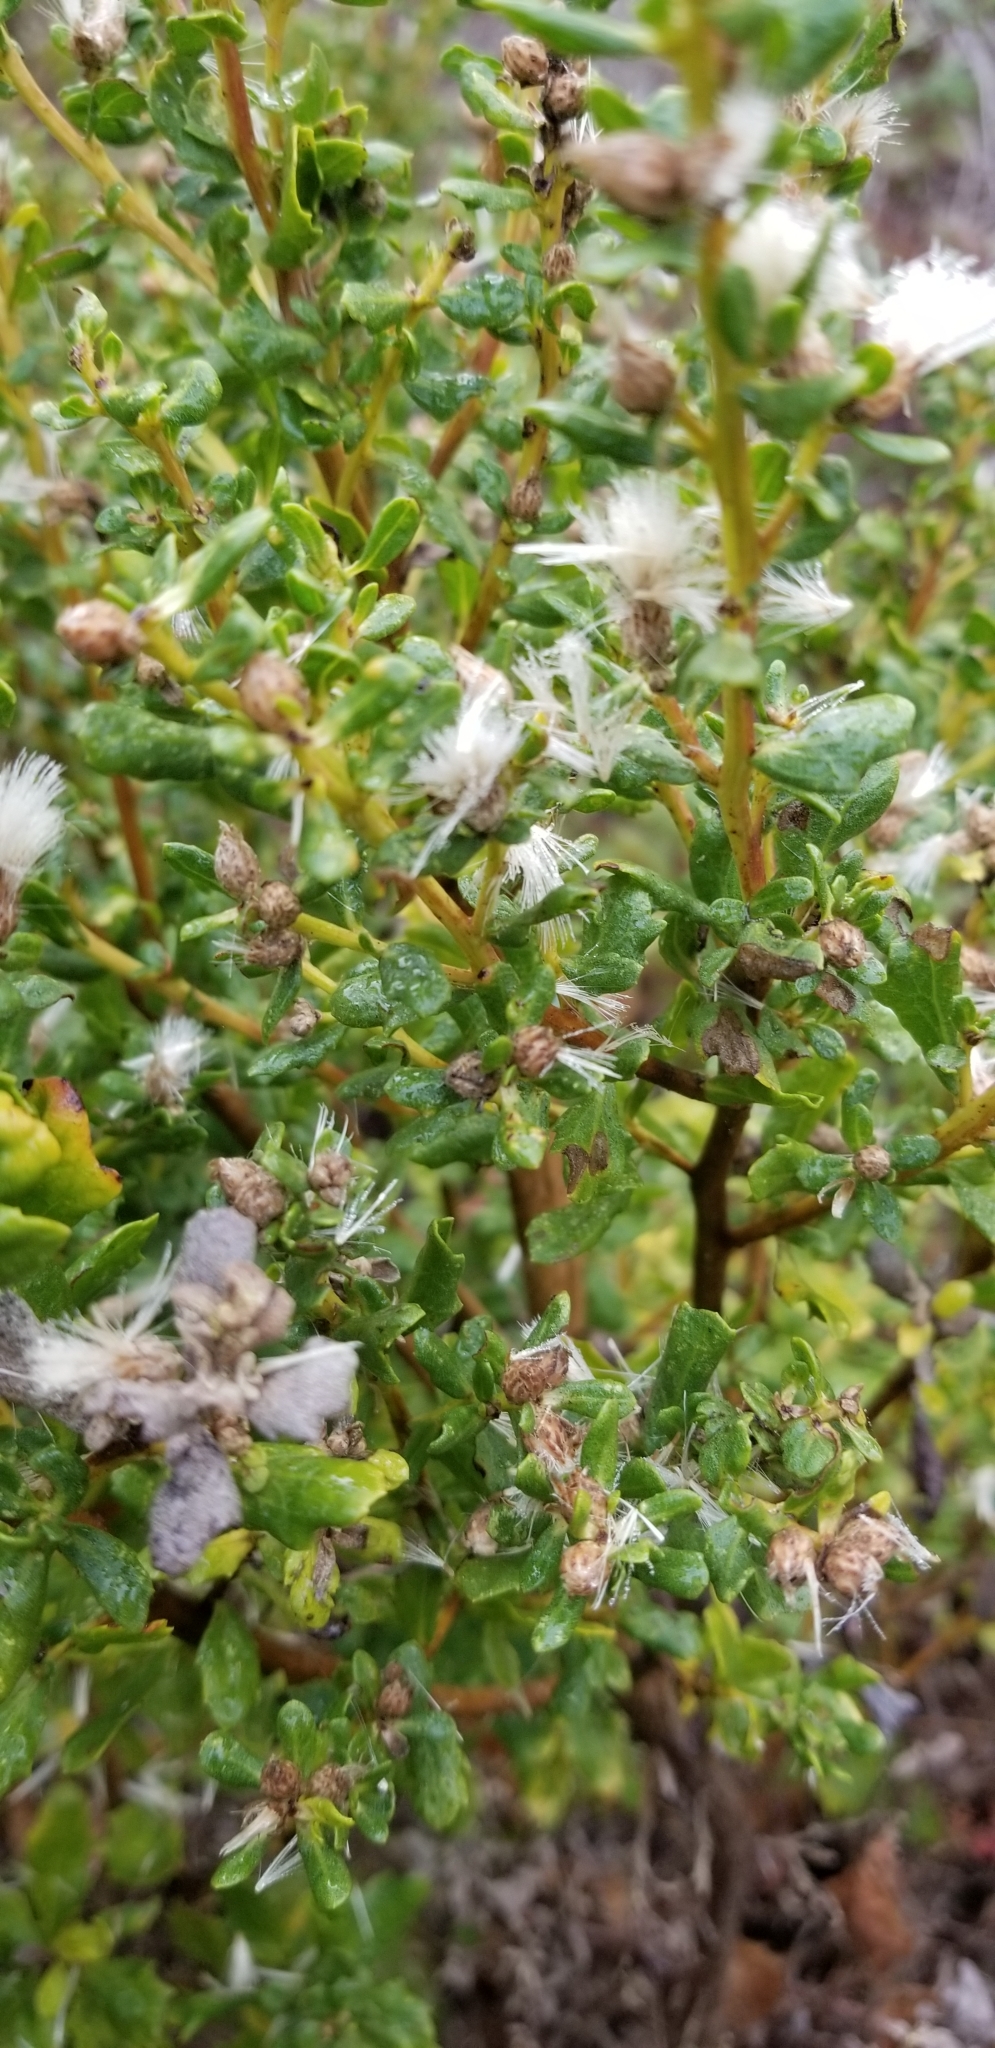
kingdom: Plantae
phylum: Tracheophyta
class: Magnoliopsida
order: Asterales
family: Asteraceae
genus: Baccharis
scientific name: Baccharis pilularis
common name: Coyotebrush
